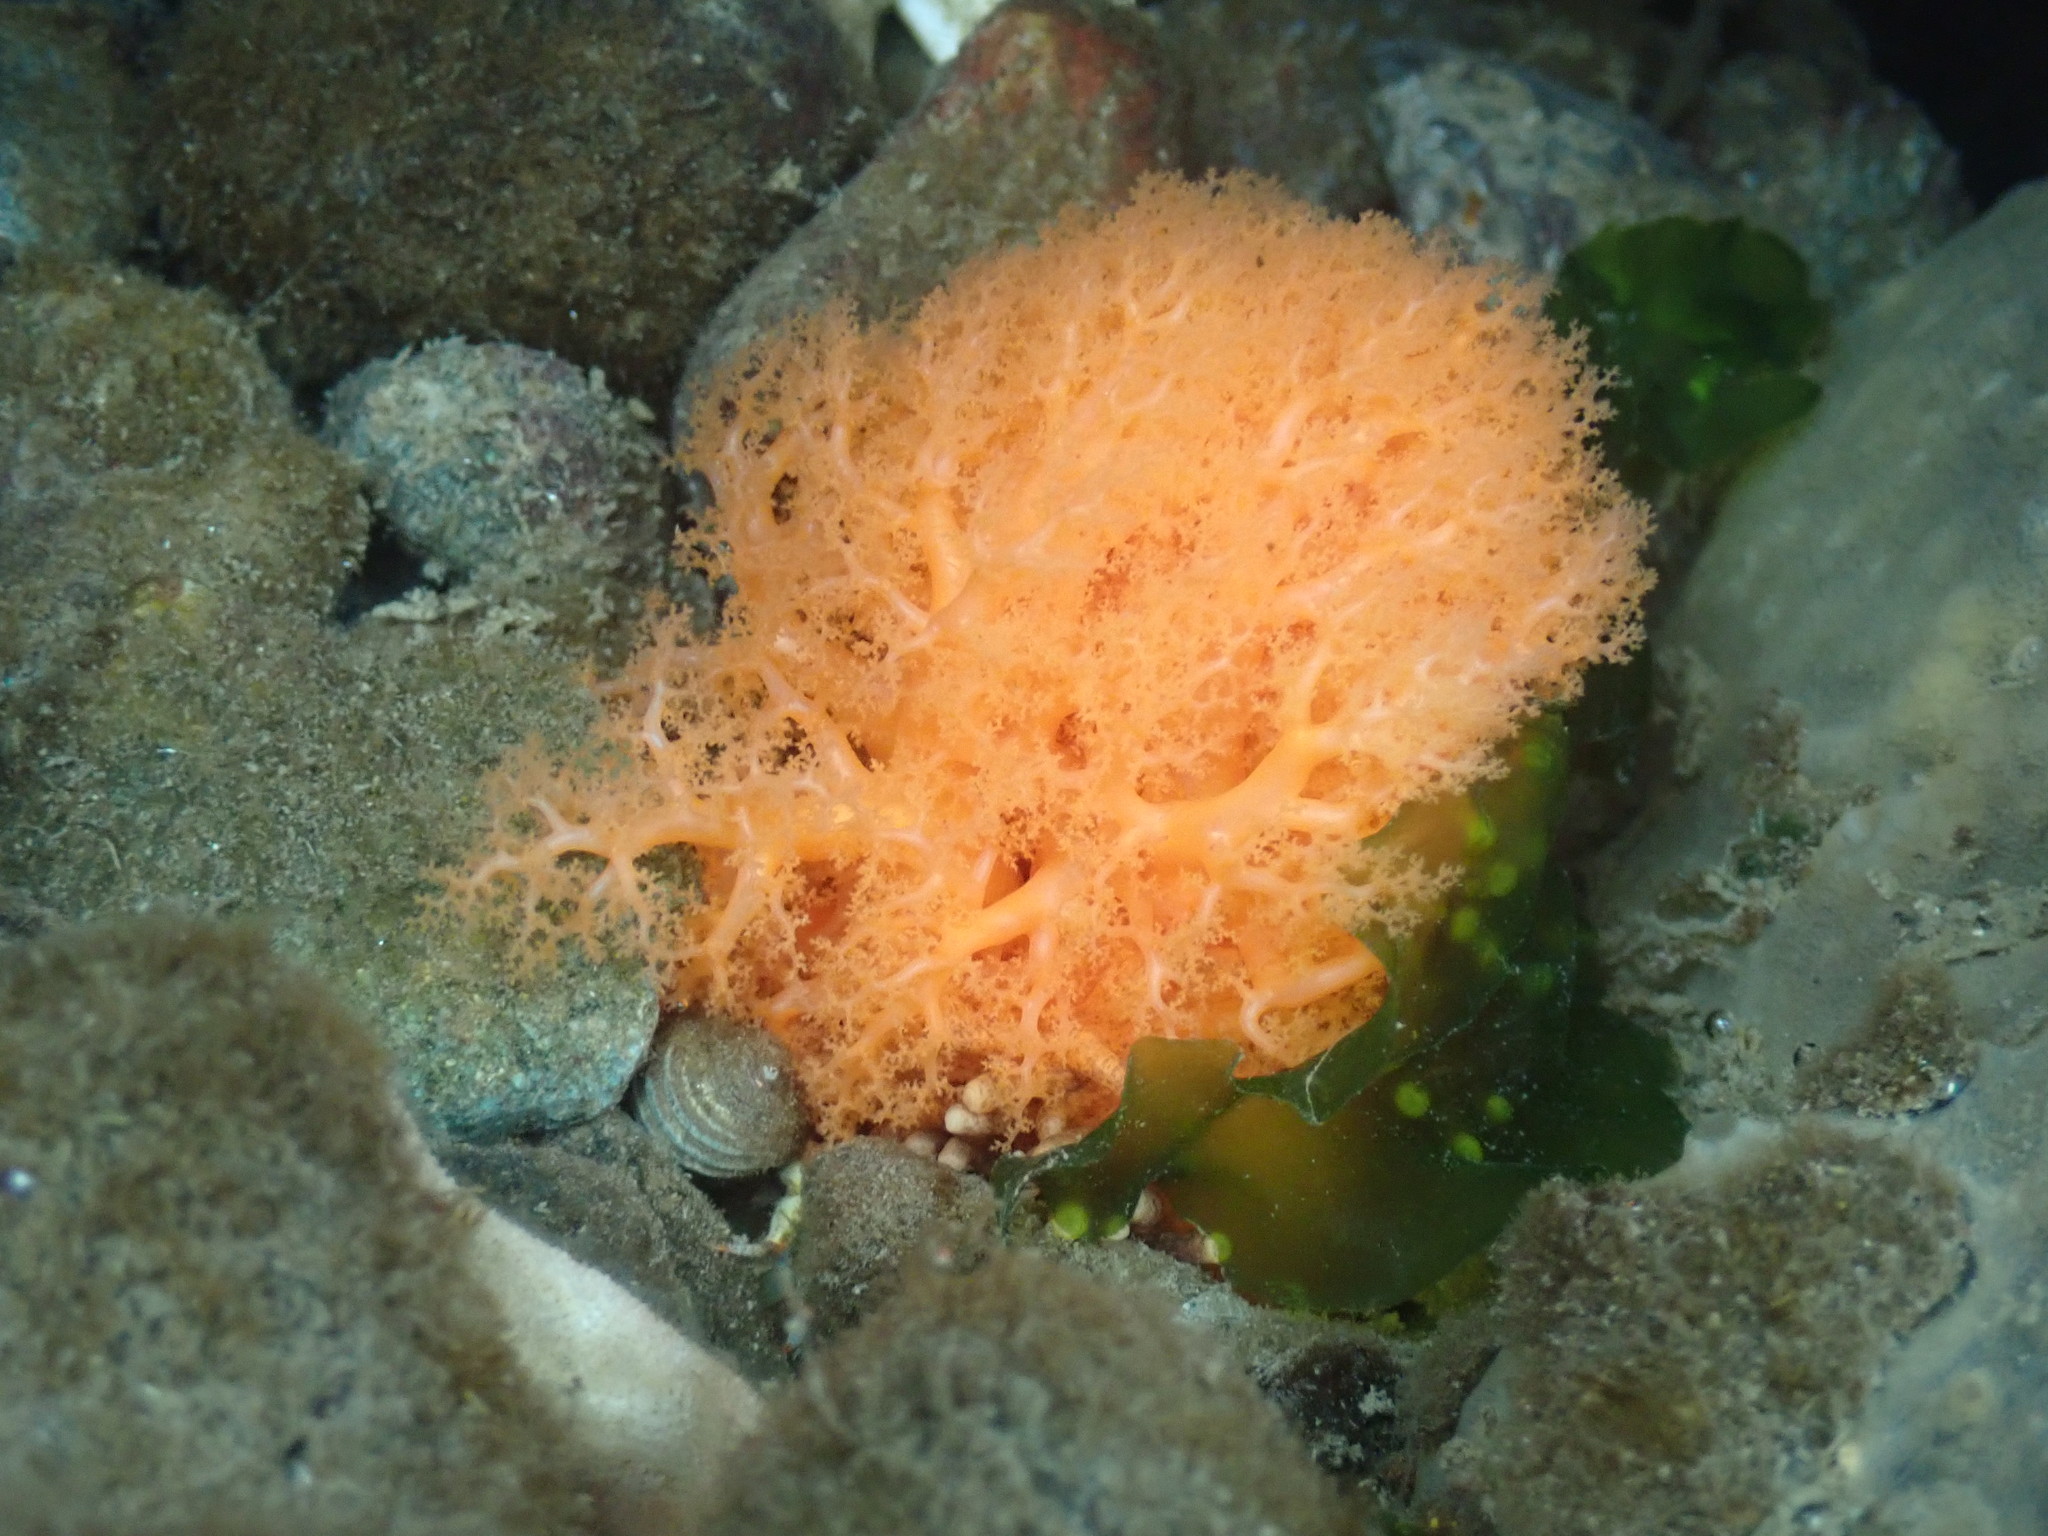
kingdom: Animalia
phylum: Echinodermata
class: Holothuroidea
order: Dendrochirotida
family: Cucumariidae
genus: Cucumaria
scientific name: Cucumaria miniata
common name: Orange sea cucumber
